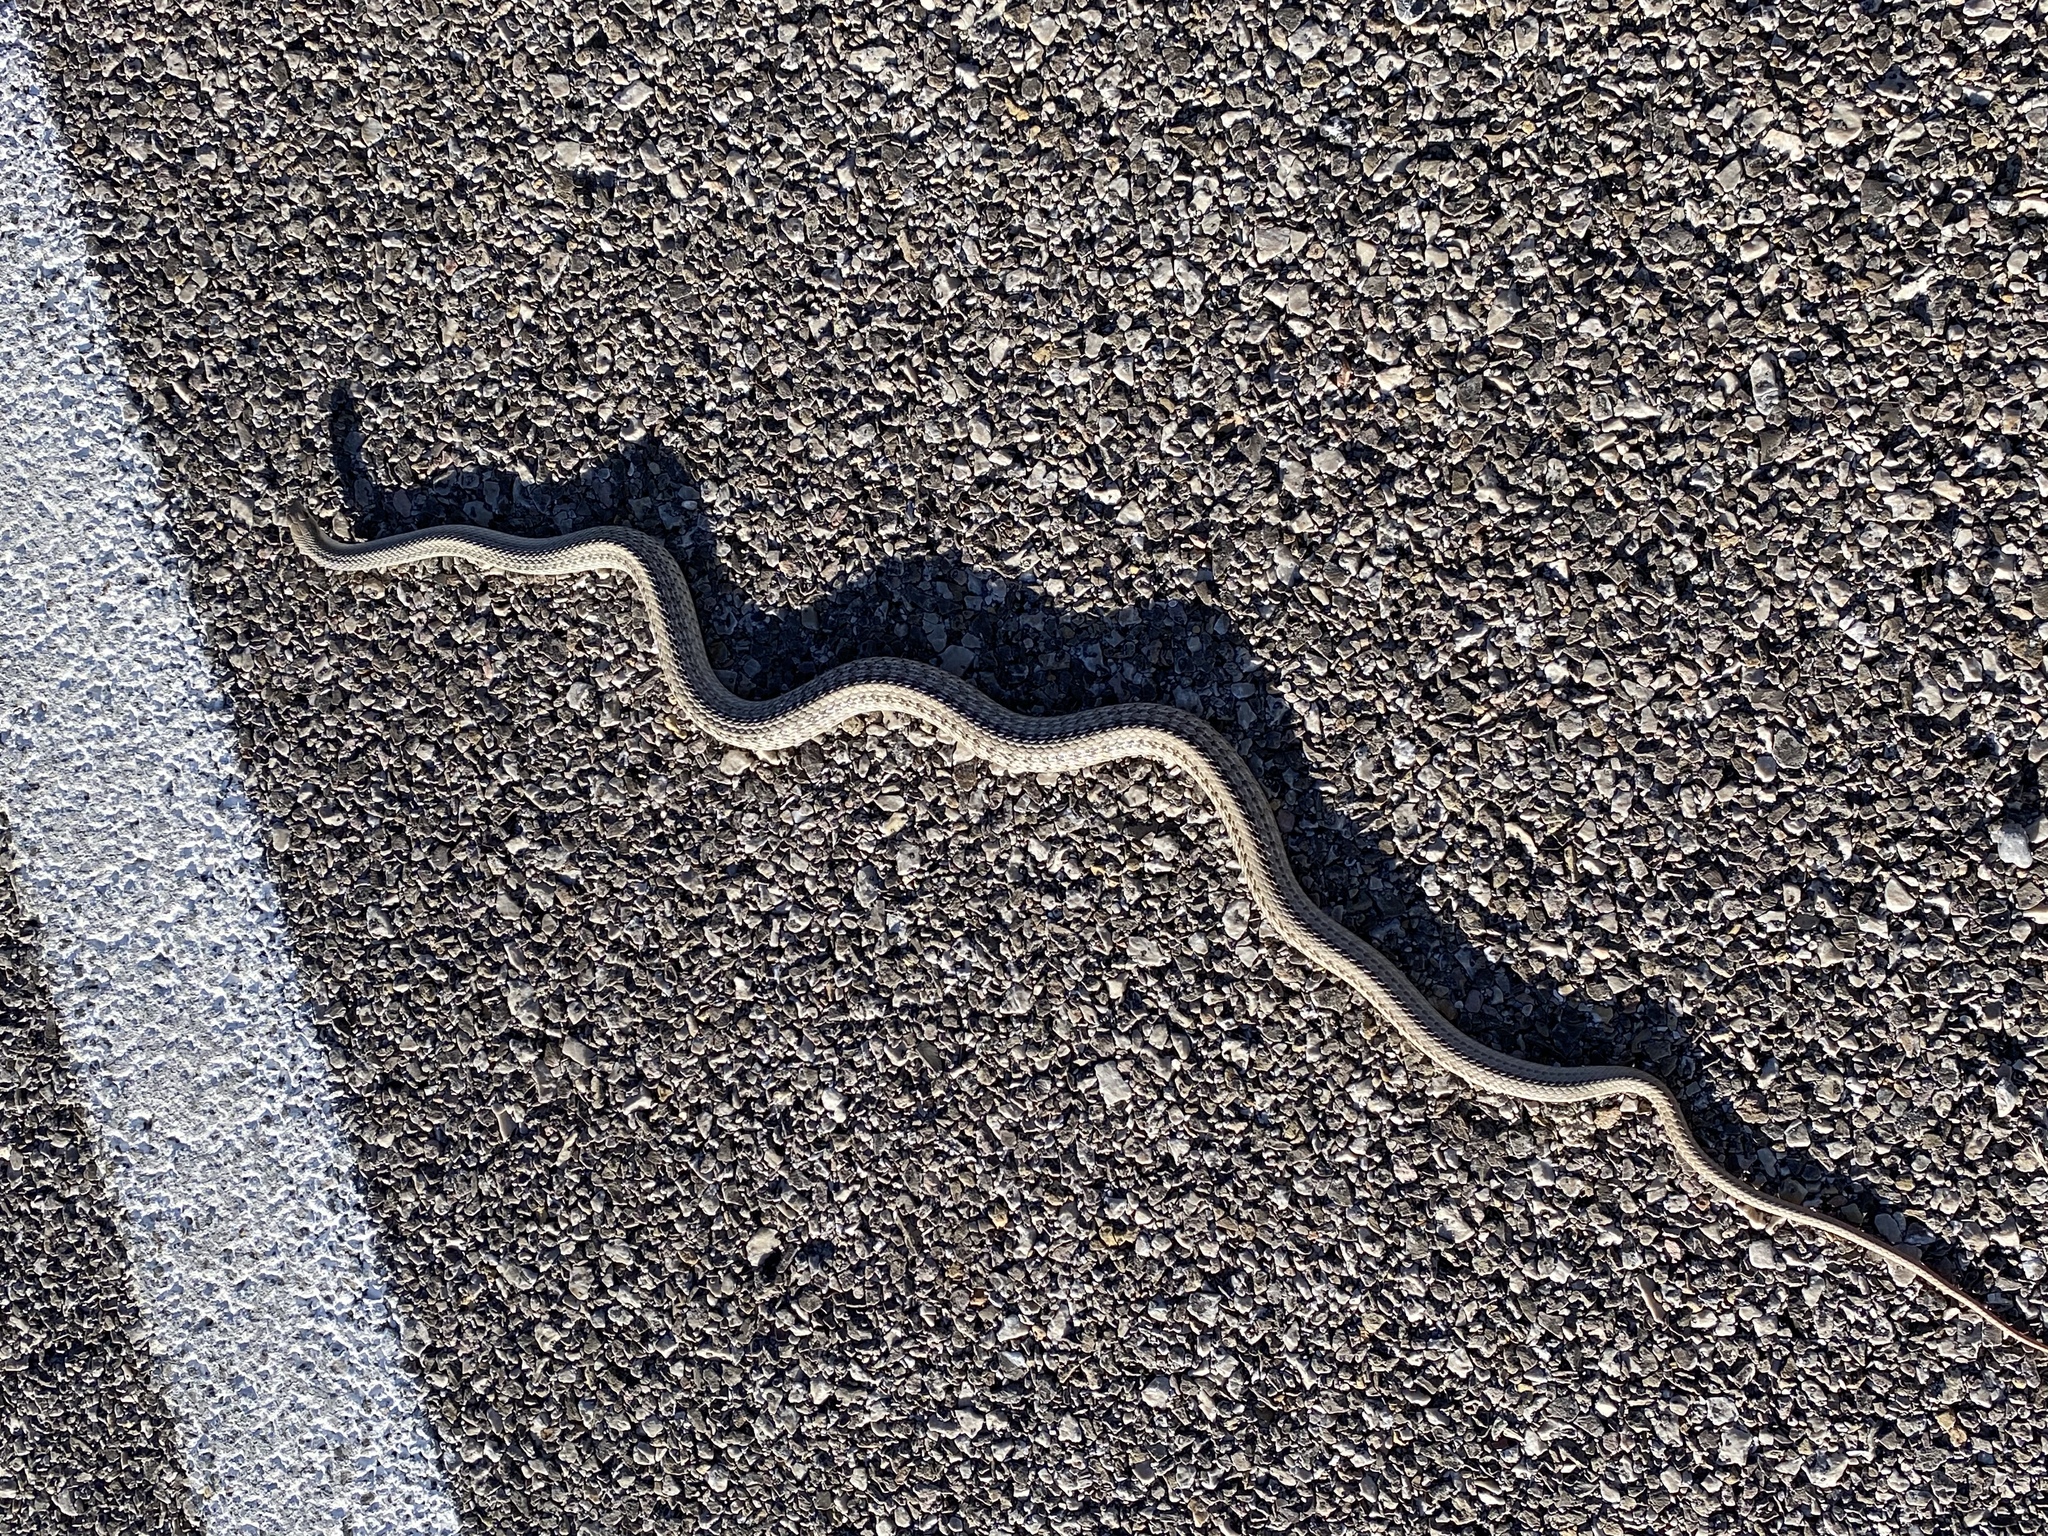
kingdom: Animalia
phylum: Chordata
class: Squamata
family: Colubridae
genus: Salvadora
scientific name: Salvadora hexalepis
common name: Western patchnose snake
